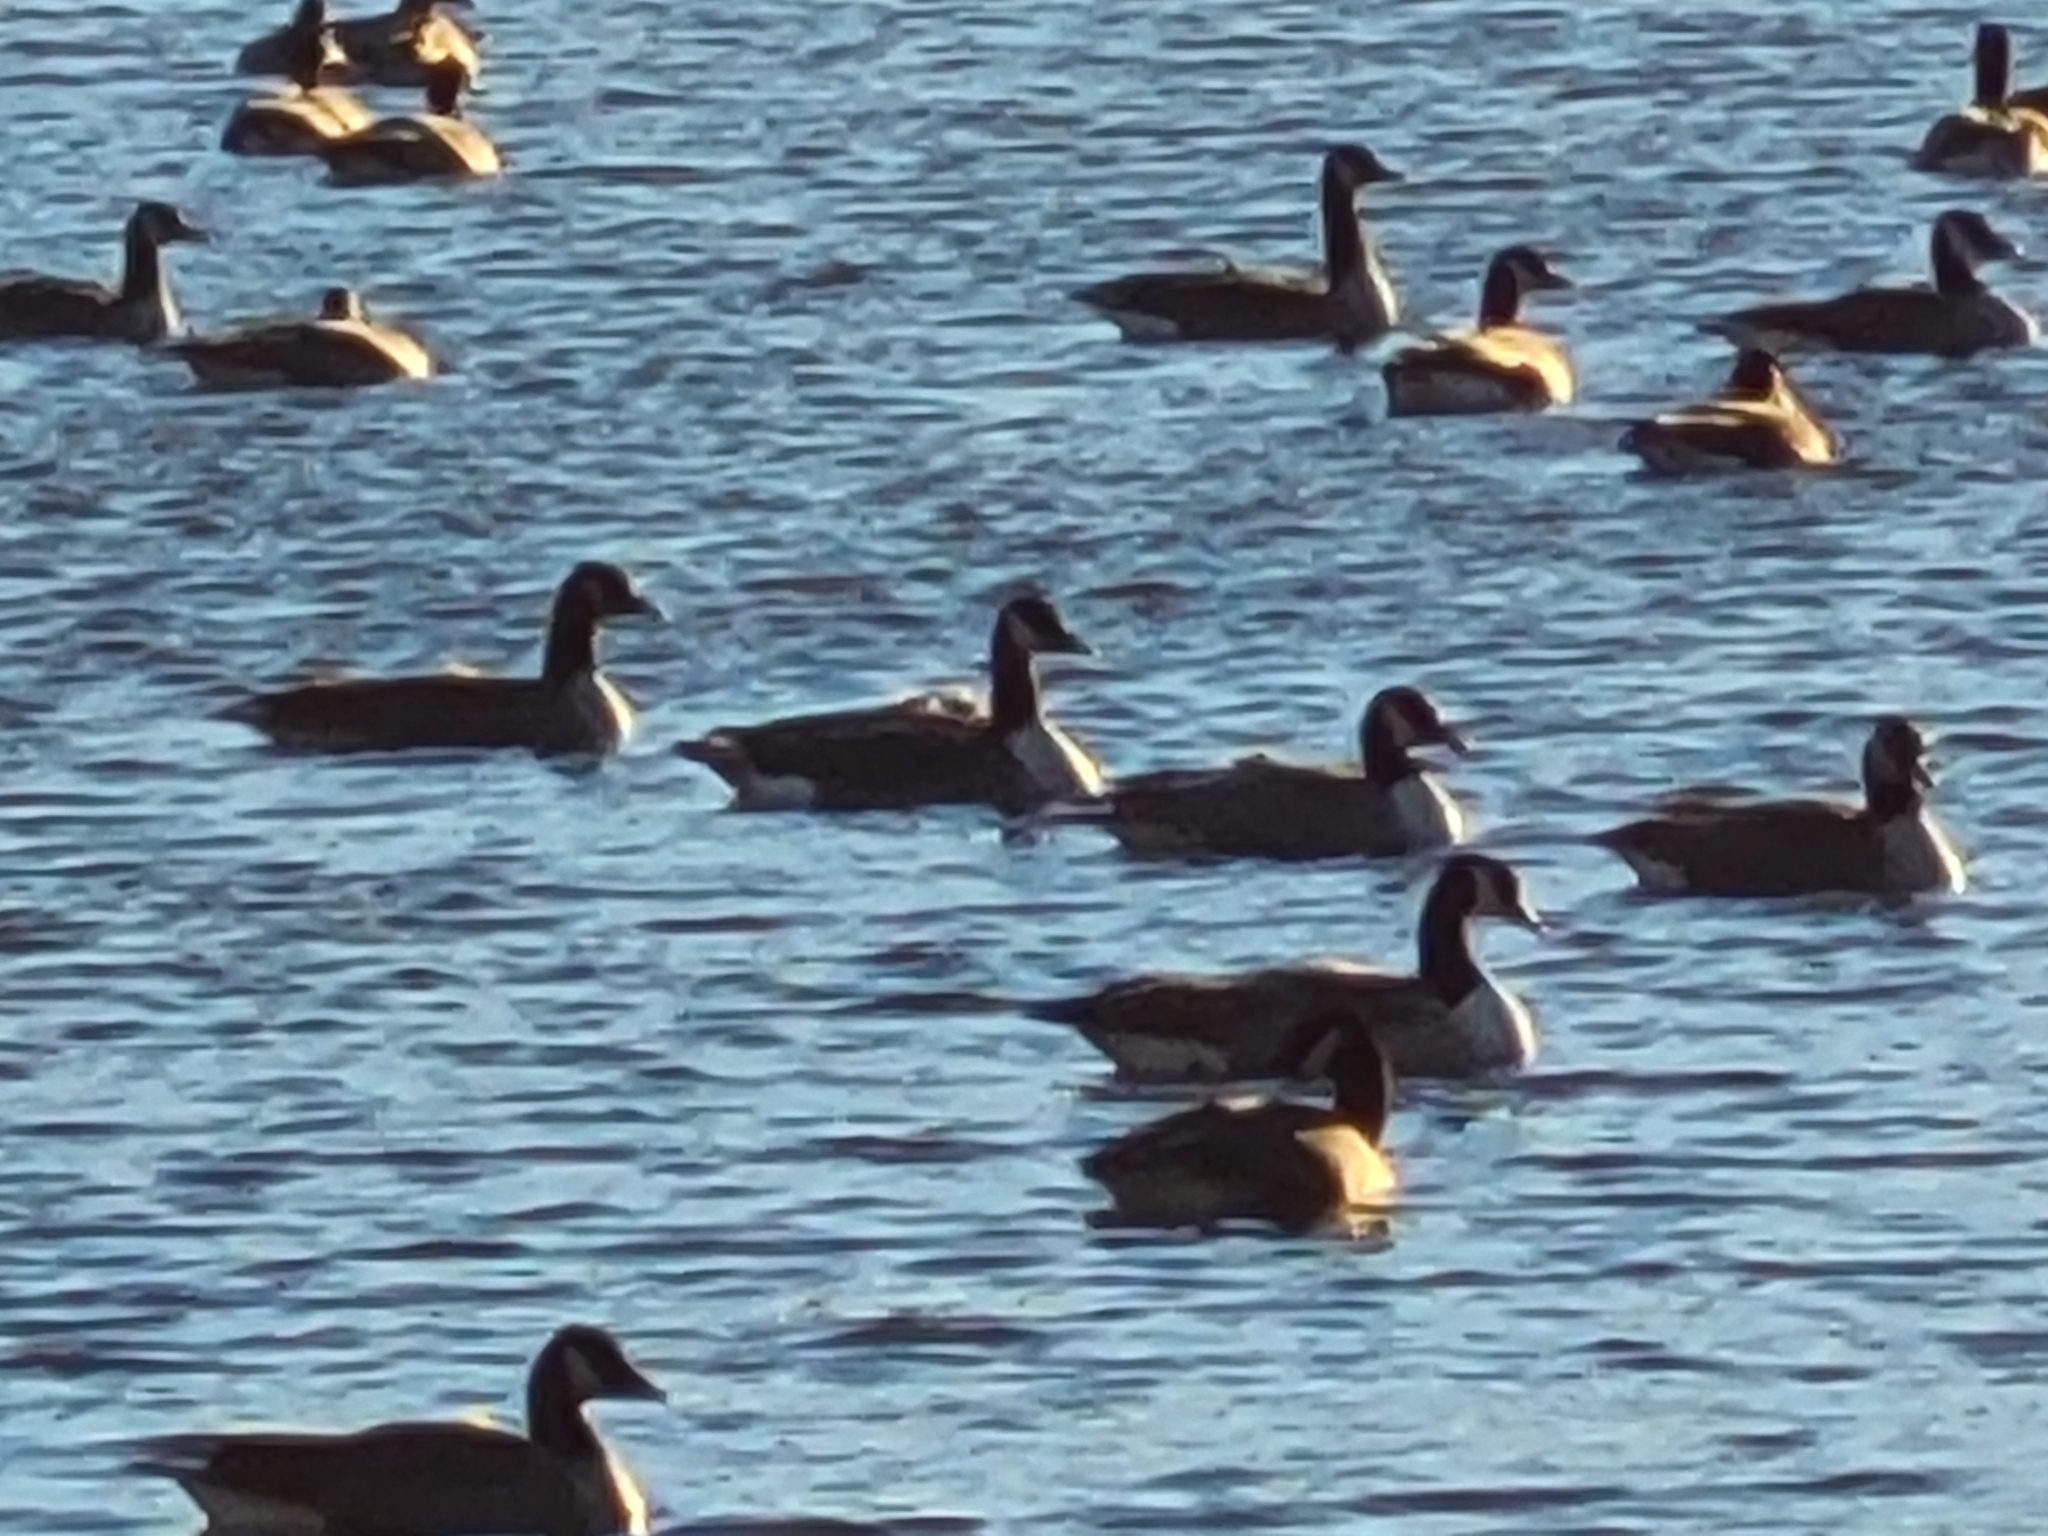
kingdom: Animalia
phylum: Chordata
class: Aves
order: Anseriformes
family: Anatidae
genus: Branta
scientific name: Branta canadensis
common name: Canada goose
